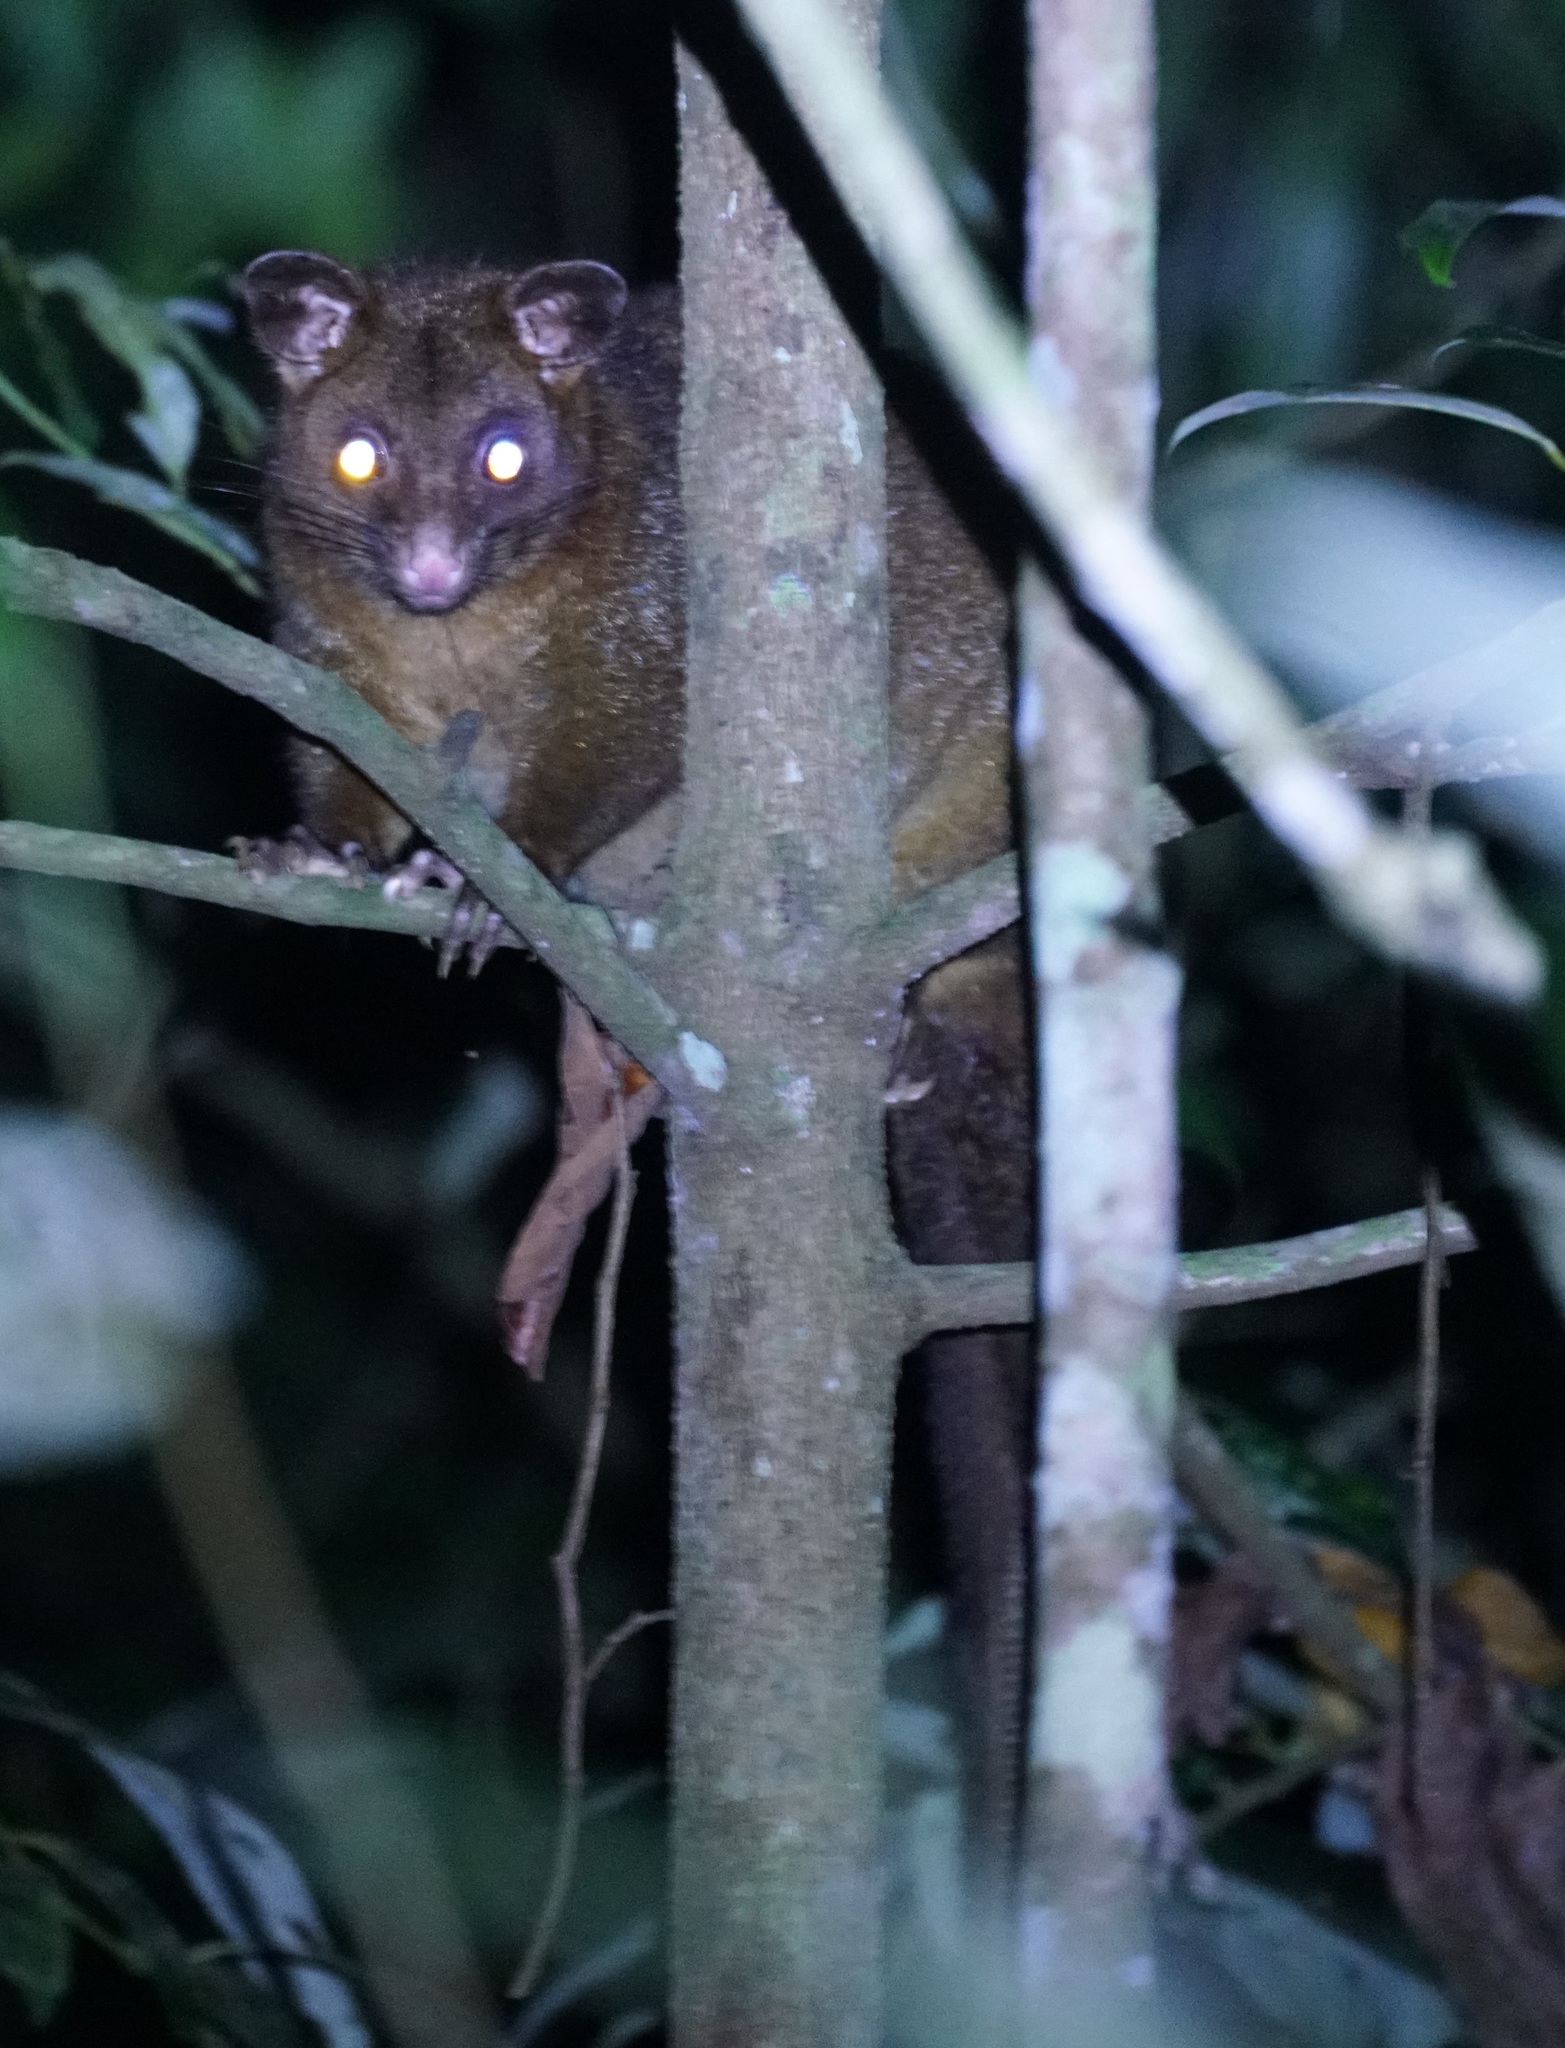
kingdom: Animalia
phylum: Chordata
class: Mammalia
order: Diprotodontia
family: Phalangeridae
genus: Trichosurus
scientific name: Trichosurus johnstonii
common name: Coppery brushtail
